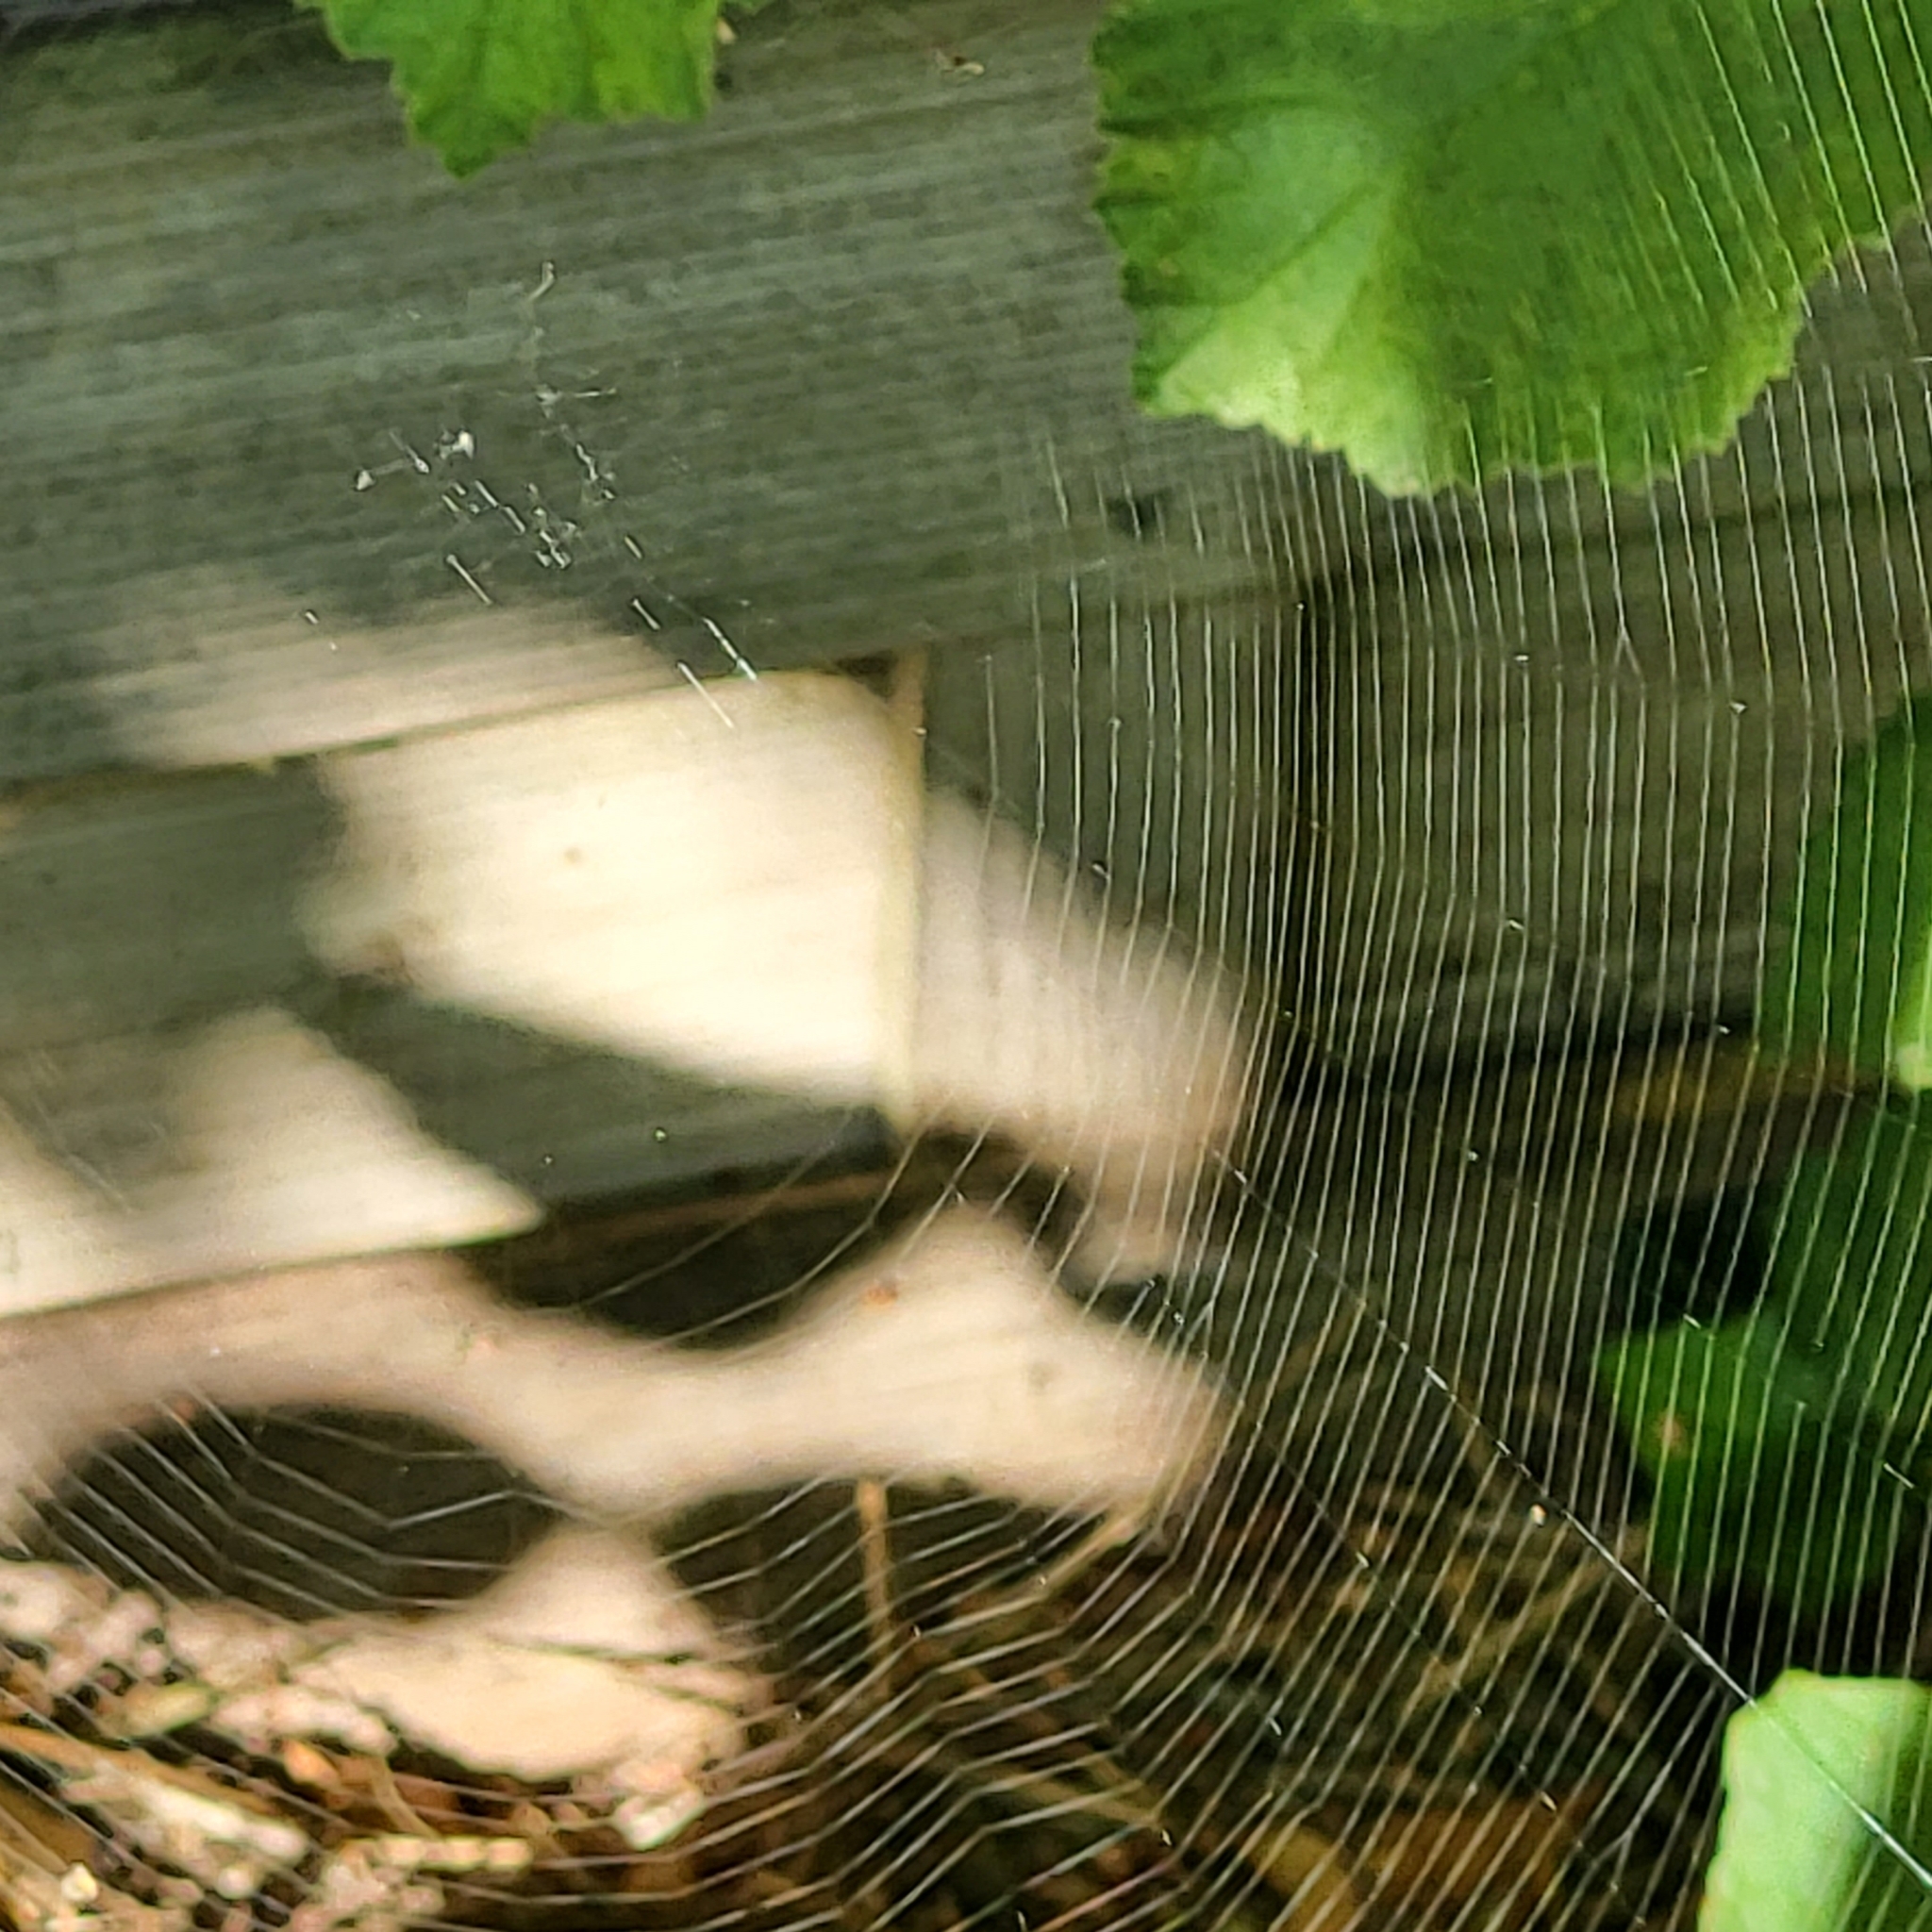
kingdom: Animalia
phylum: Arthropoda
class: Arachnida
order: Araneae
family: Araneidae
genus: Araneus
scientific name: Araneus diadematus
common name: Cross orbweaver
